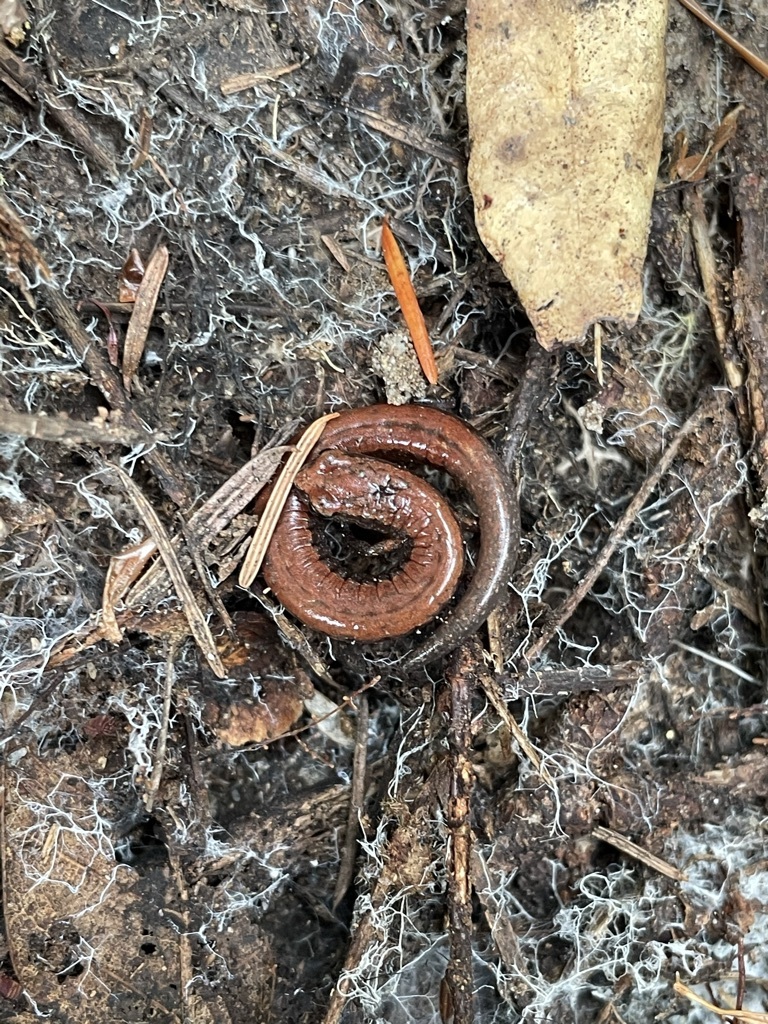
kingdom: Animalia
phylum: Chordata
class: Amphibia
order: Caudata
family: Plethodontidae
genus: Batrachoseps
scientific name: Batrachoseps attenuatus
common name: California slender salamander
